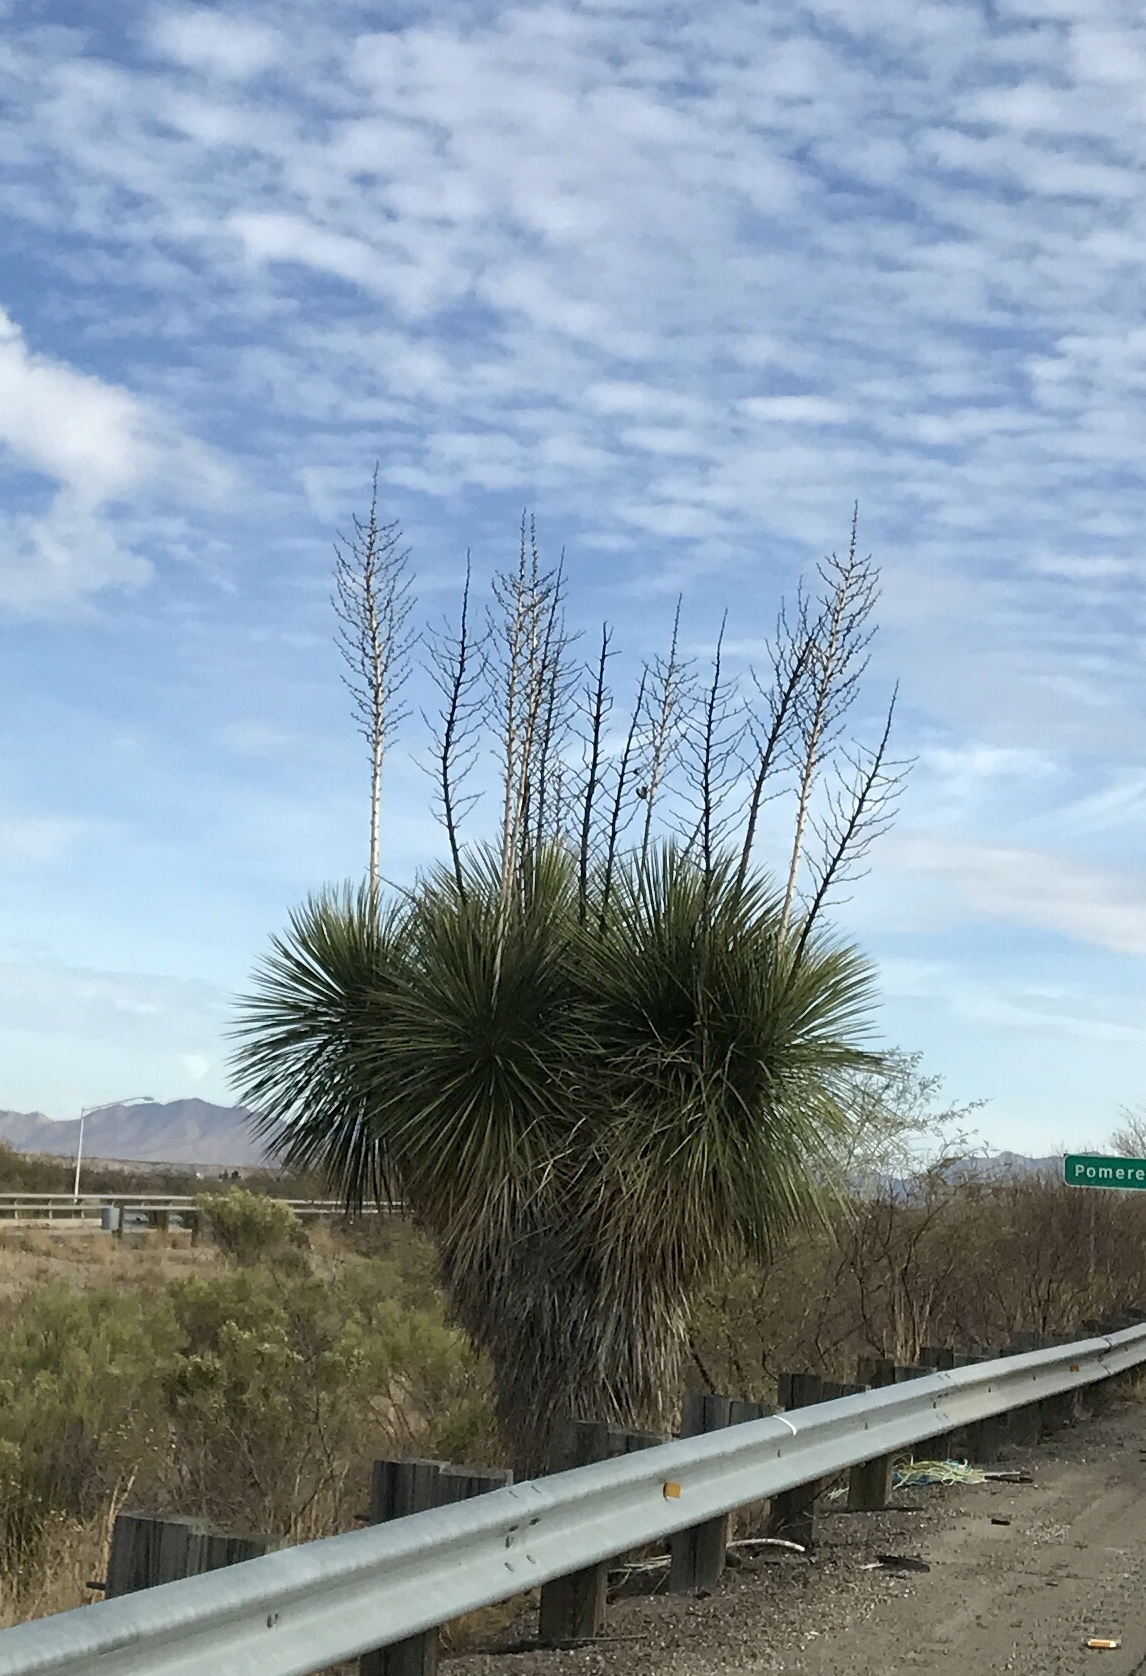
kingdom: Plantae
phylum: Tracheophyta
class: Liliopsida
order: Asparagales
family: Asparagaceae
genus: Yucca
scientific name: Yucca elata
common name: Palmella
